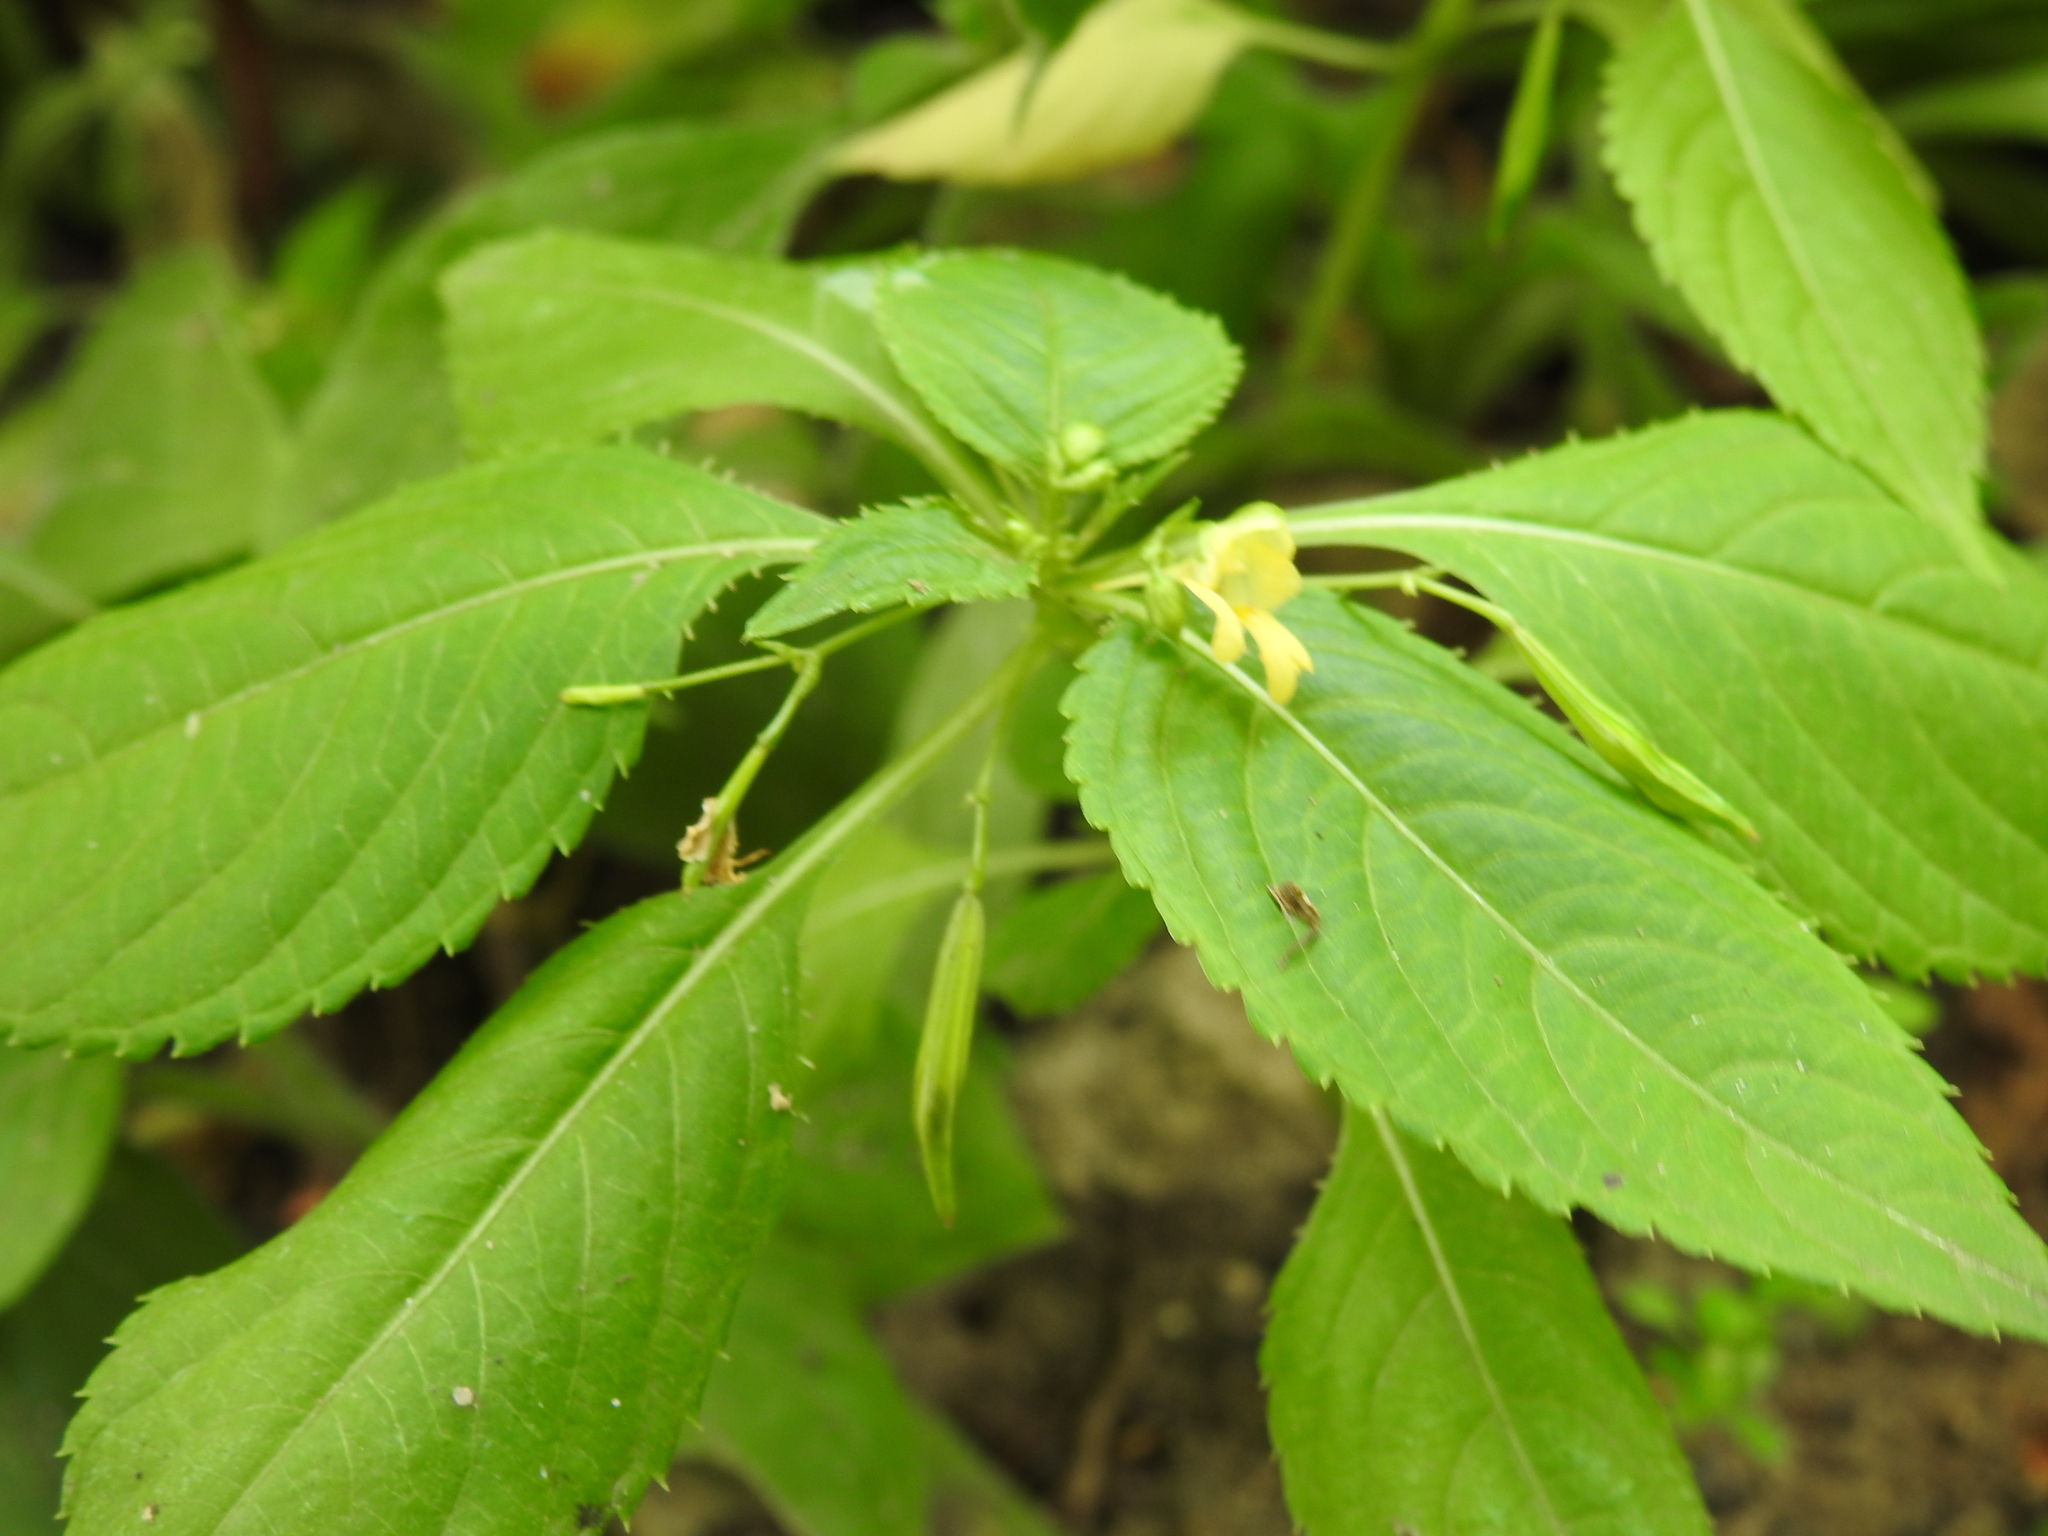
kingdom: Plantae
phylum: Tracheophyta
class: Magnoliopsida
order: Ericales
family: Balsaminaceae
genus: Impatiens
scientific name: Impatiens parviflora
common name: Small balsam
